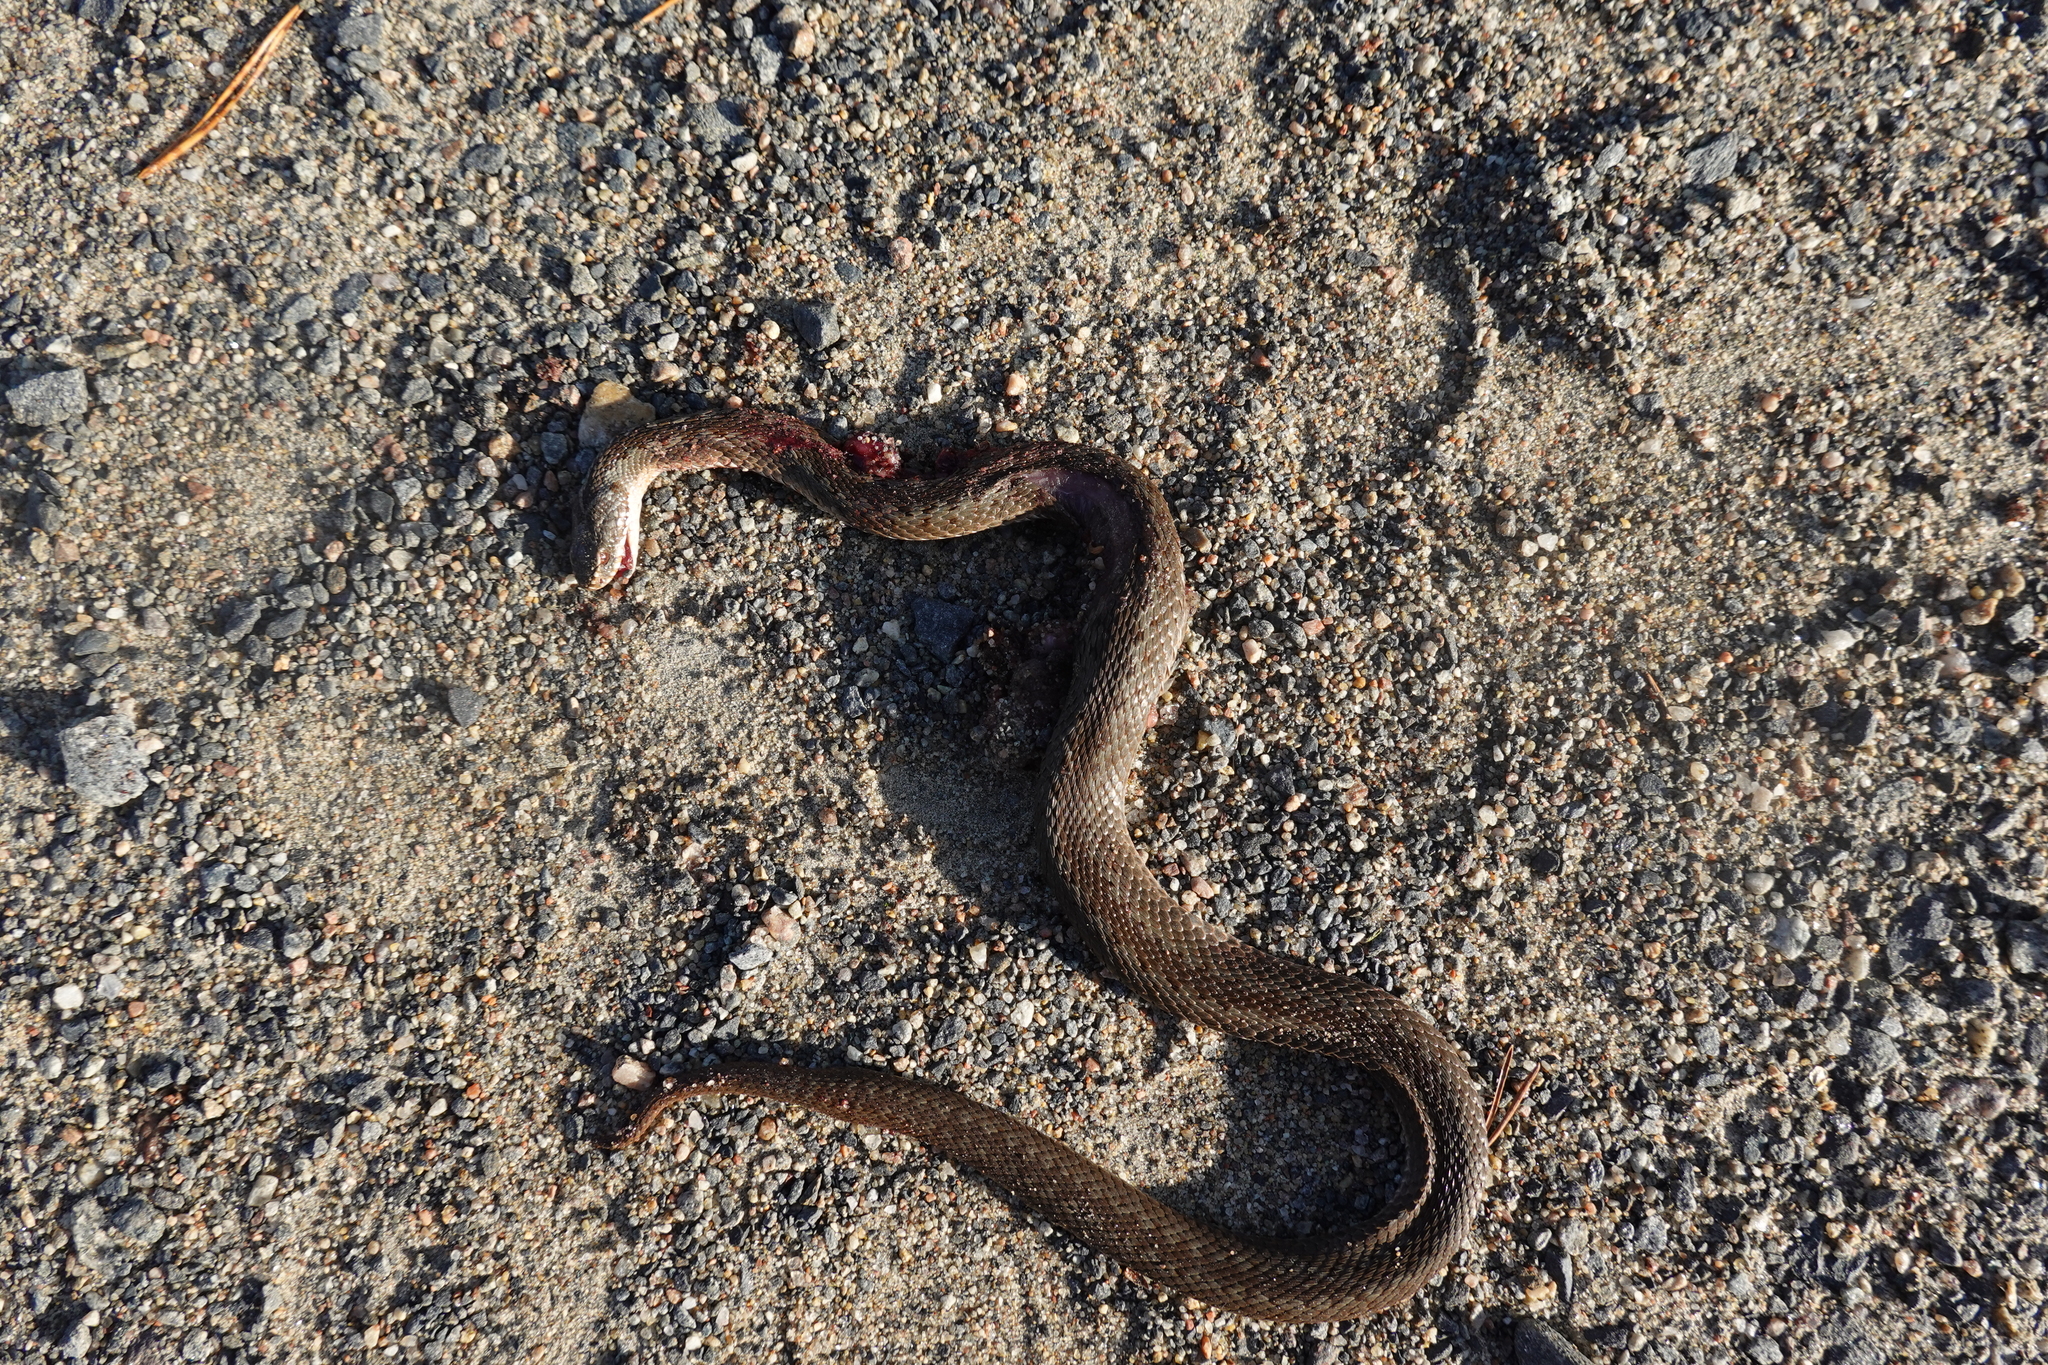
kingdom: Animalia
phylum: Chordata
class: Squamata
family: Viperidae
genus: Vipera
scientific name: Vipera berus
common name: Adder
